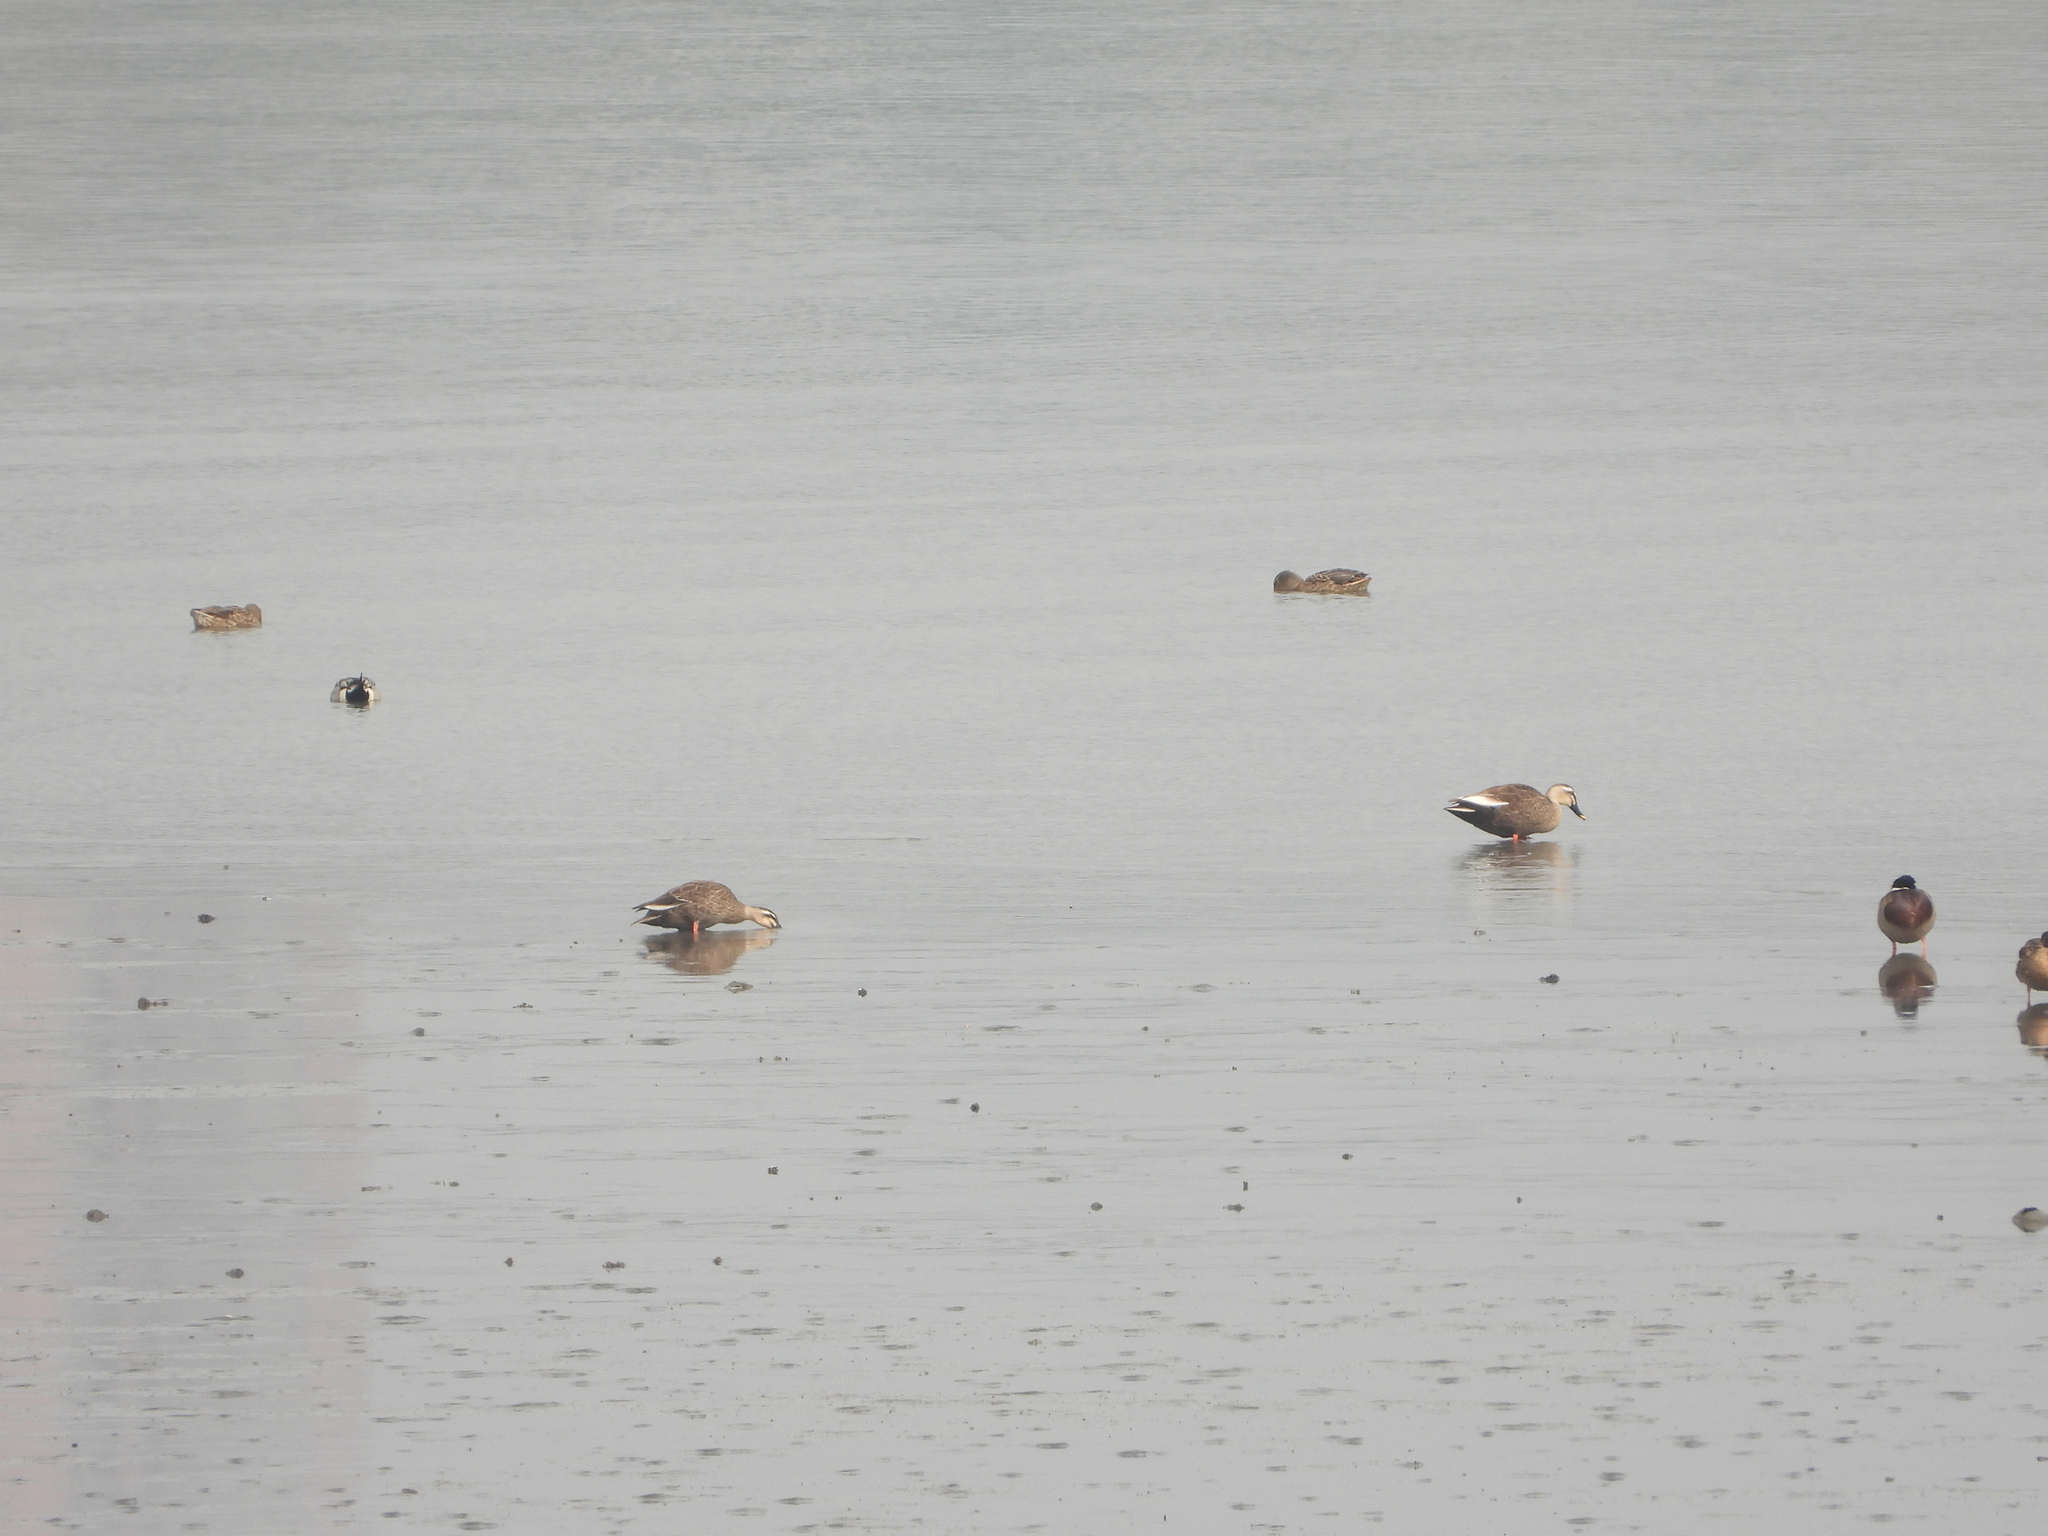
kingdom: Animalia
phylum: Chordata
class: Aves
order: Anseriformes
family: Anatidae
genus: Anas
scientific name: Anas zonorhyncha
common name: Eastern spot-billed duck
